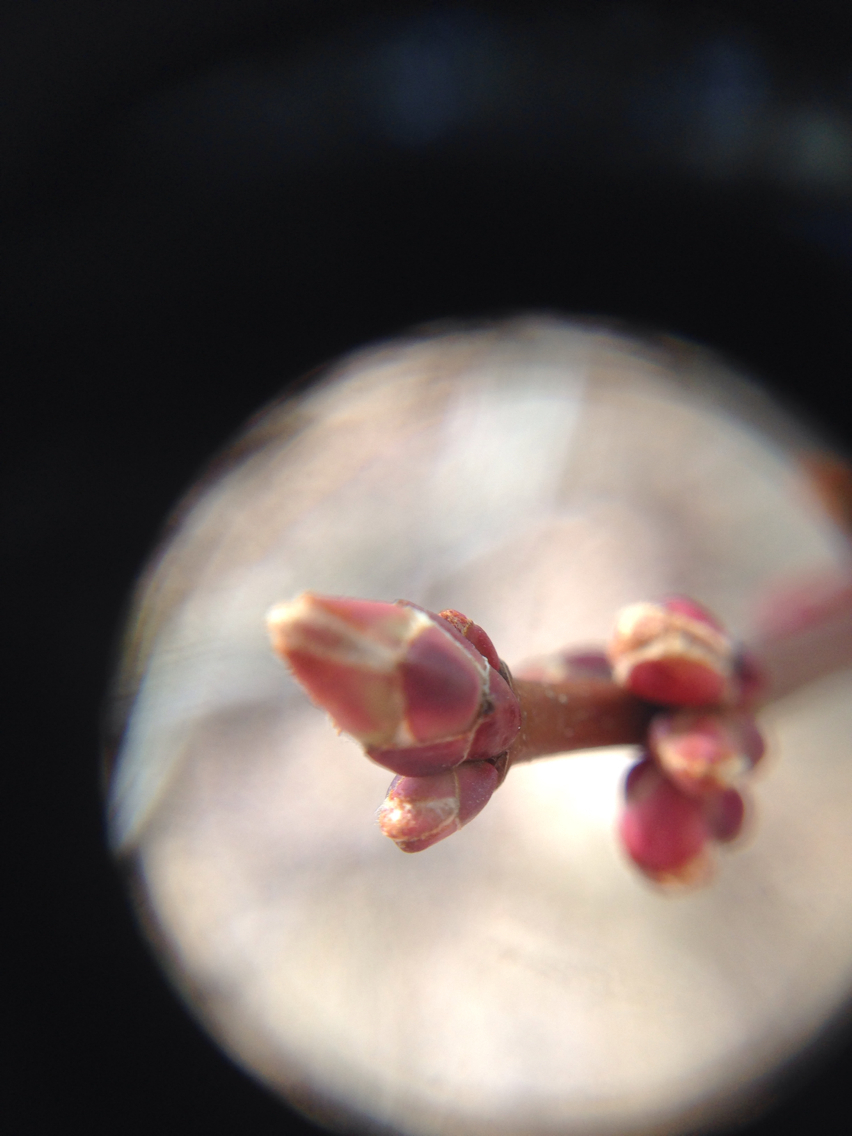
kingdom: Plantae
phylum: Tracheophyta
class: Magnoliopsida
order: Sapindales
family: Sapindaceae
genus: Acer
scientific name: Acer rubrum
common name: Red maple
